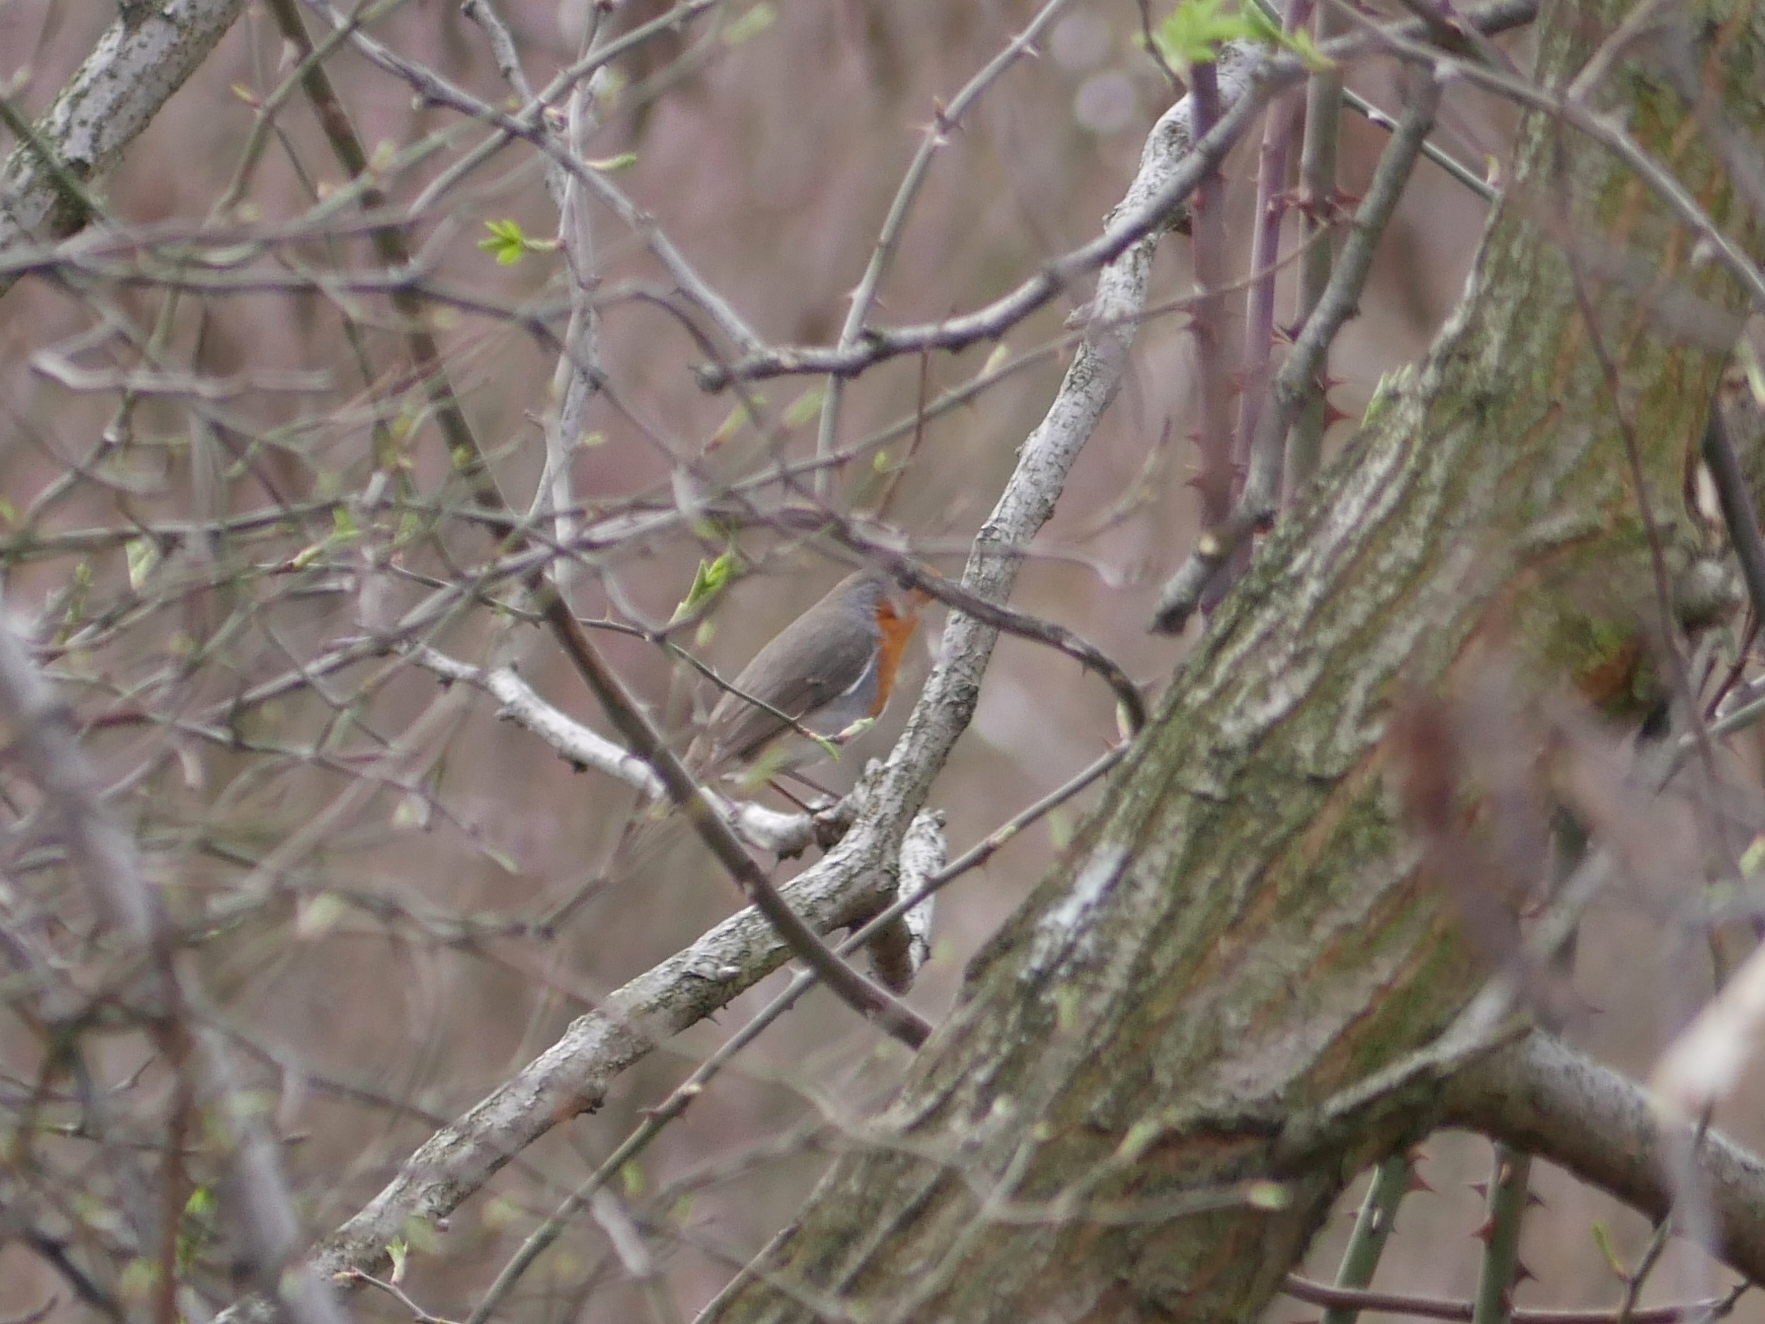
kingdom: Animalia
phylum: Chordata
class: Aves
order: Passeriformes
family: Muscicapidae
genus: Erithacus
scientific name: Erithacus rubecula
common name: European robin
